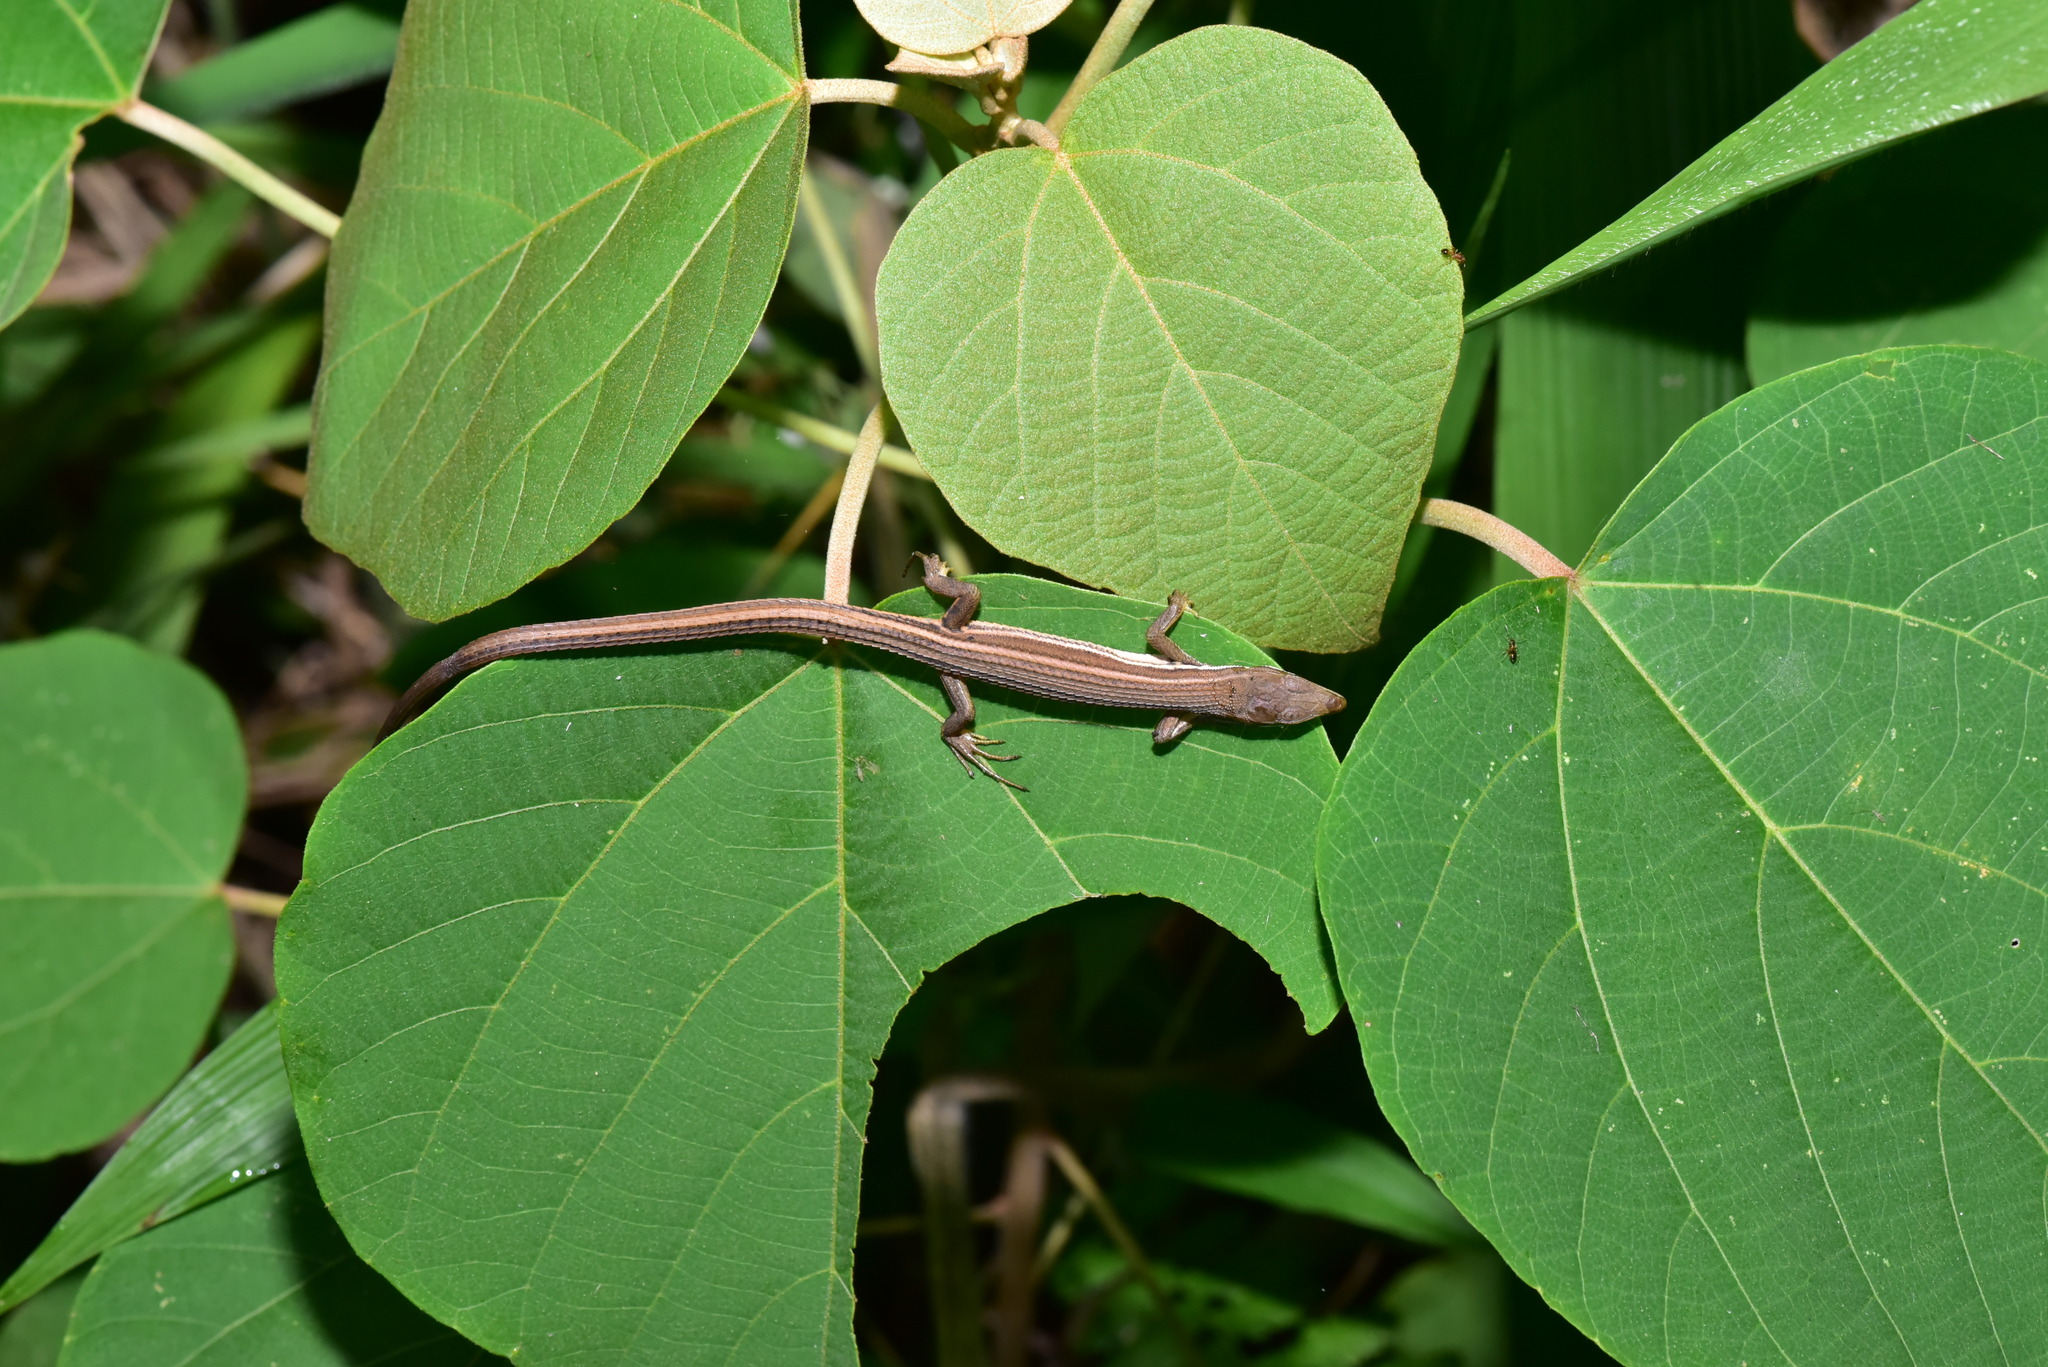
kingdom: Animalia
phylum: Chordata
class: Squamata
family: Lacertidae
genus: Takydromus
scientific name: Takydromus viridipunctatus
